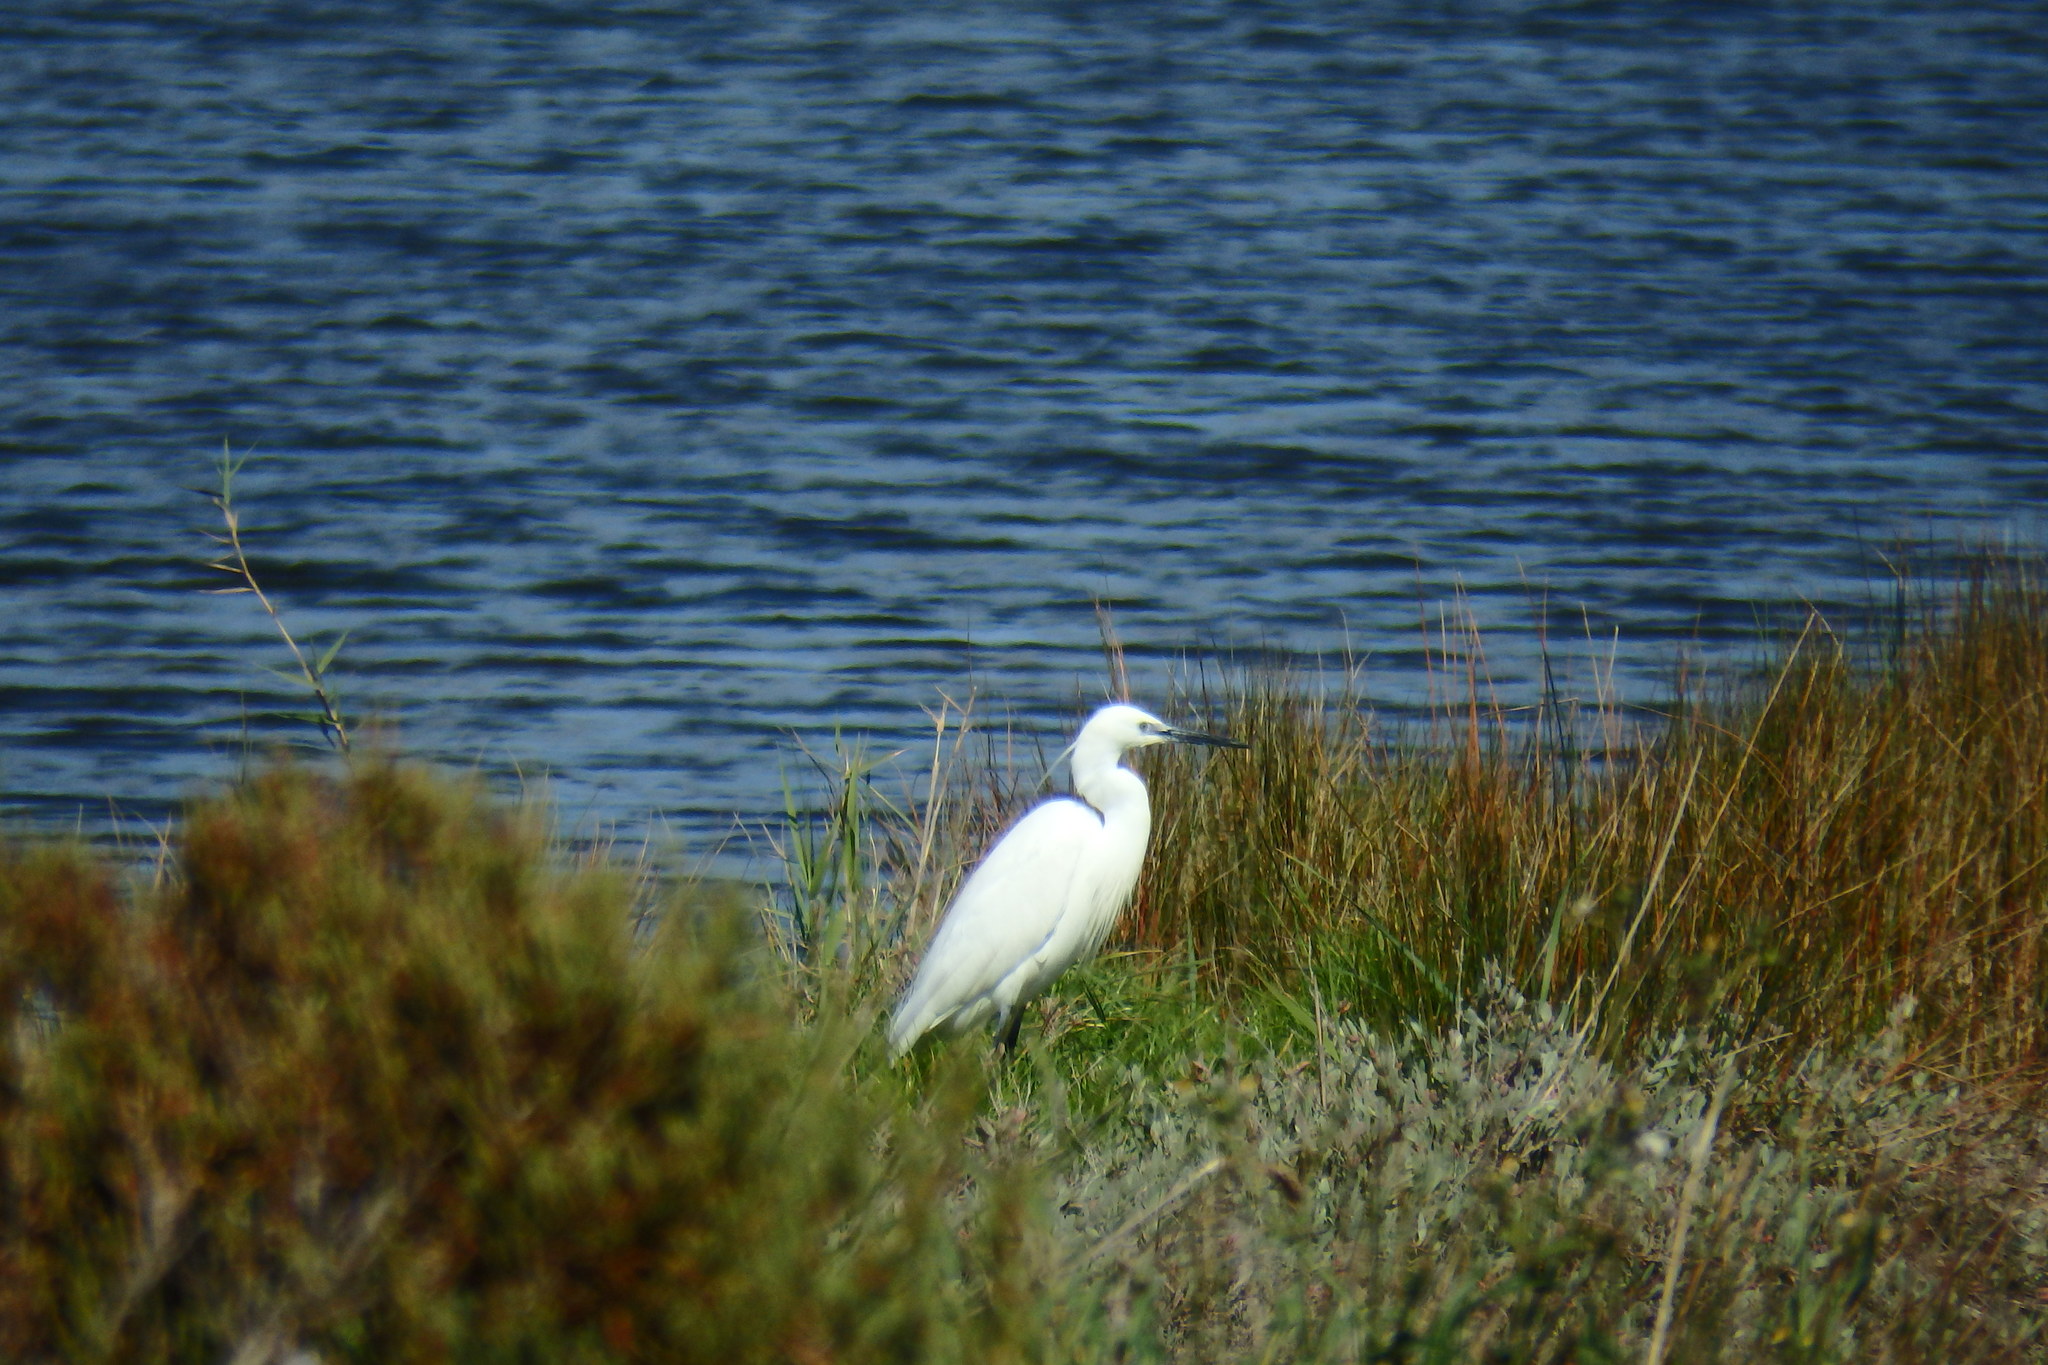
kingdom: Animalia
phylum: Chordata
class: Aves
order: Pelecaniformes
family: Ardeidae
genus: Egretta
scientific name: Egretta garzetta
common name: Little egret
